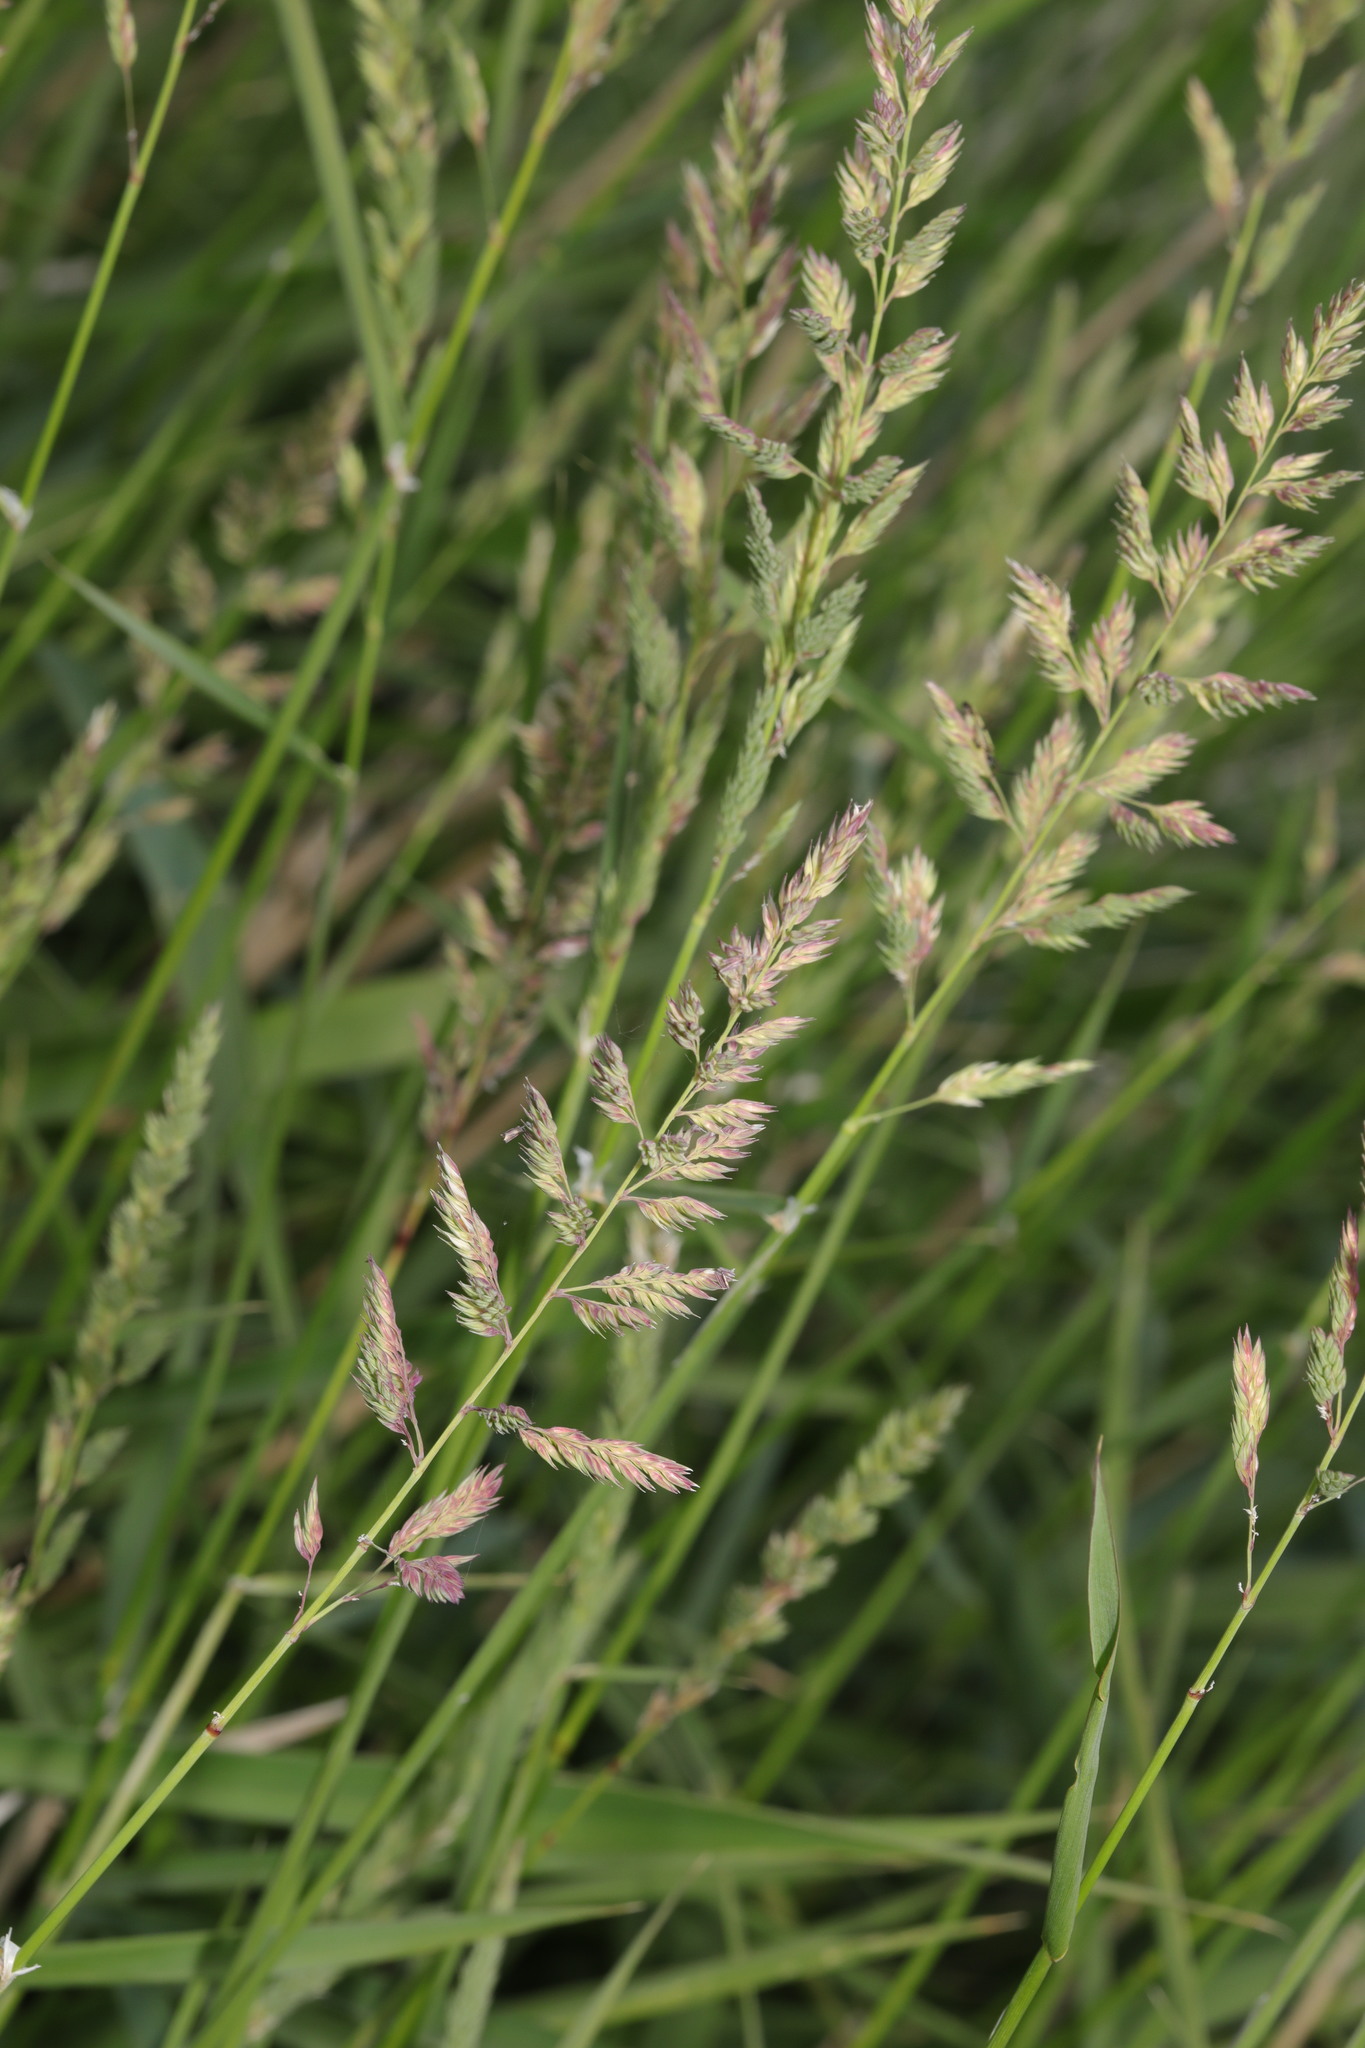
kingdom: Plantae
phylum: Tracheophyta
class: Liliopsida
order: Poales
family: Poaceae
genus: Phalaris
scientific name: Phalaris arundinacea
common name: Reed canary-grass
